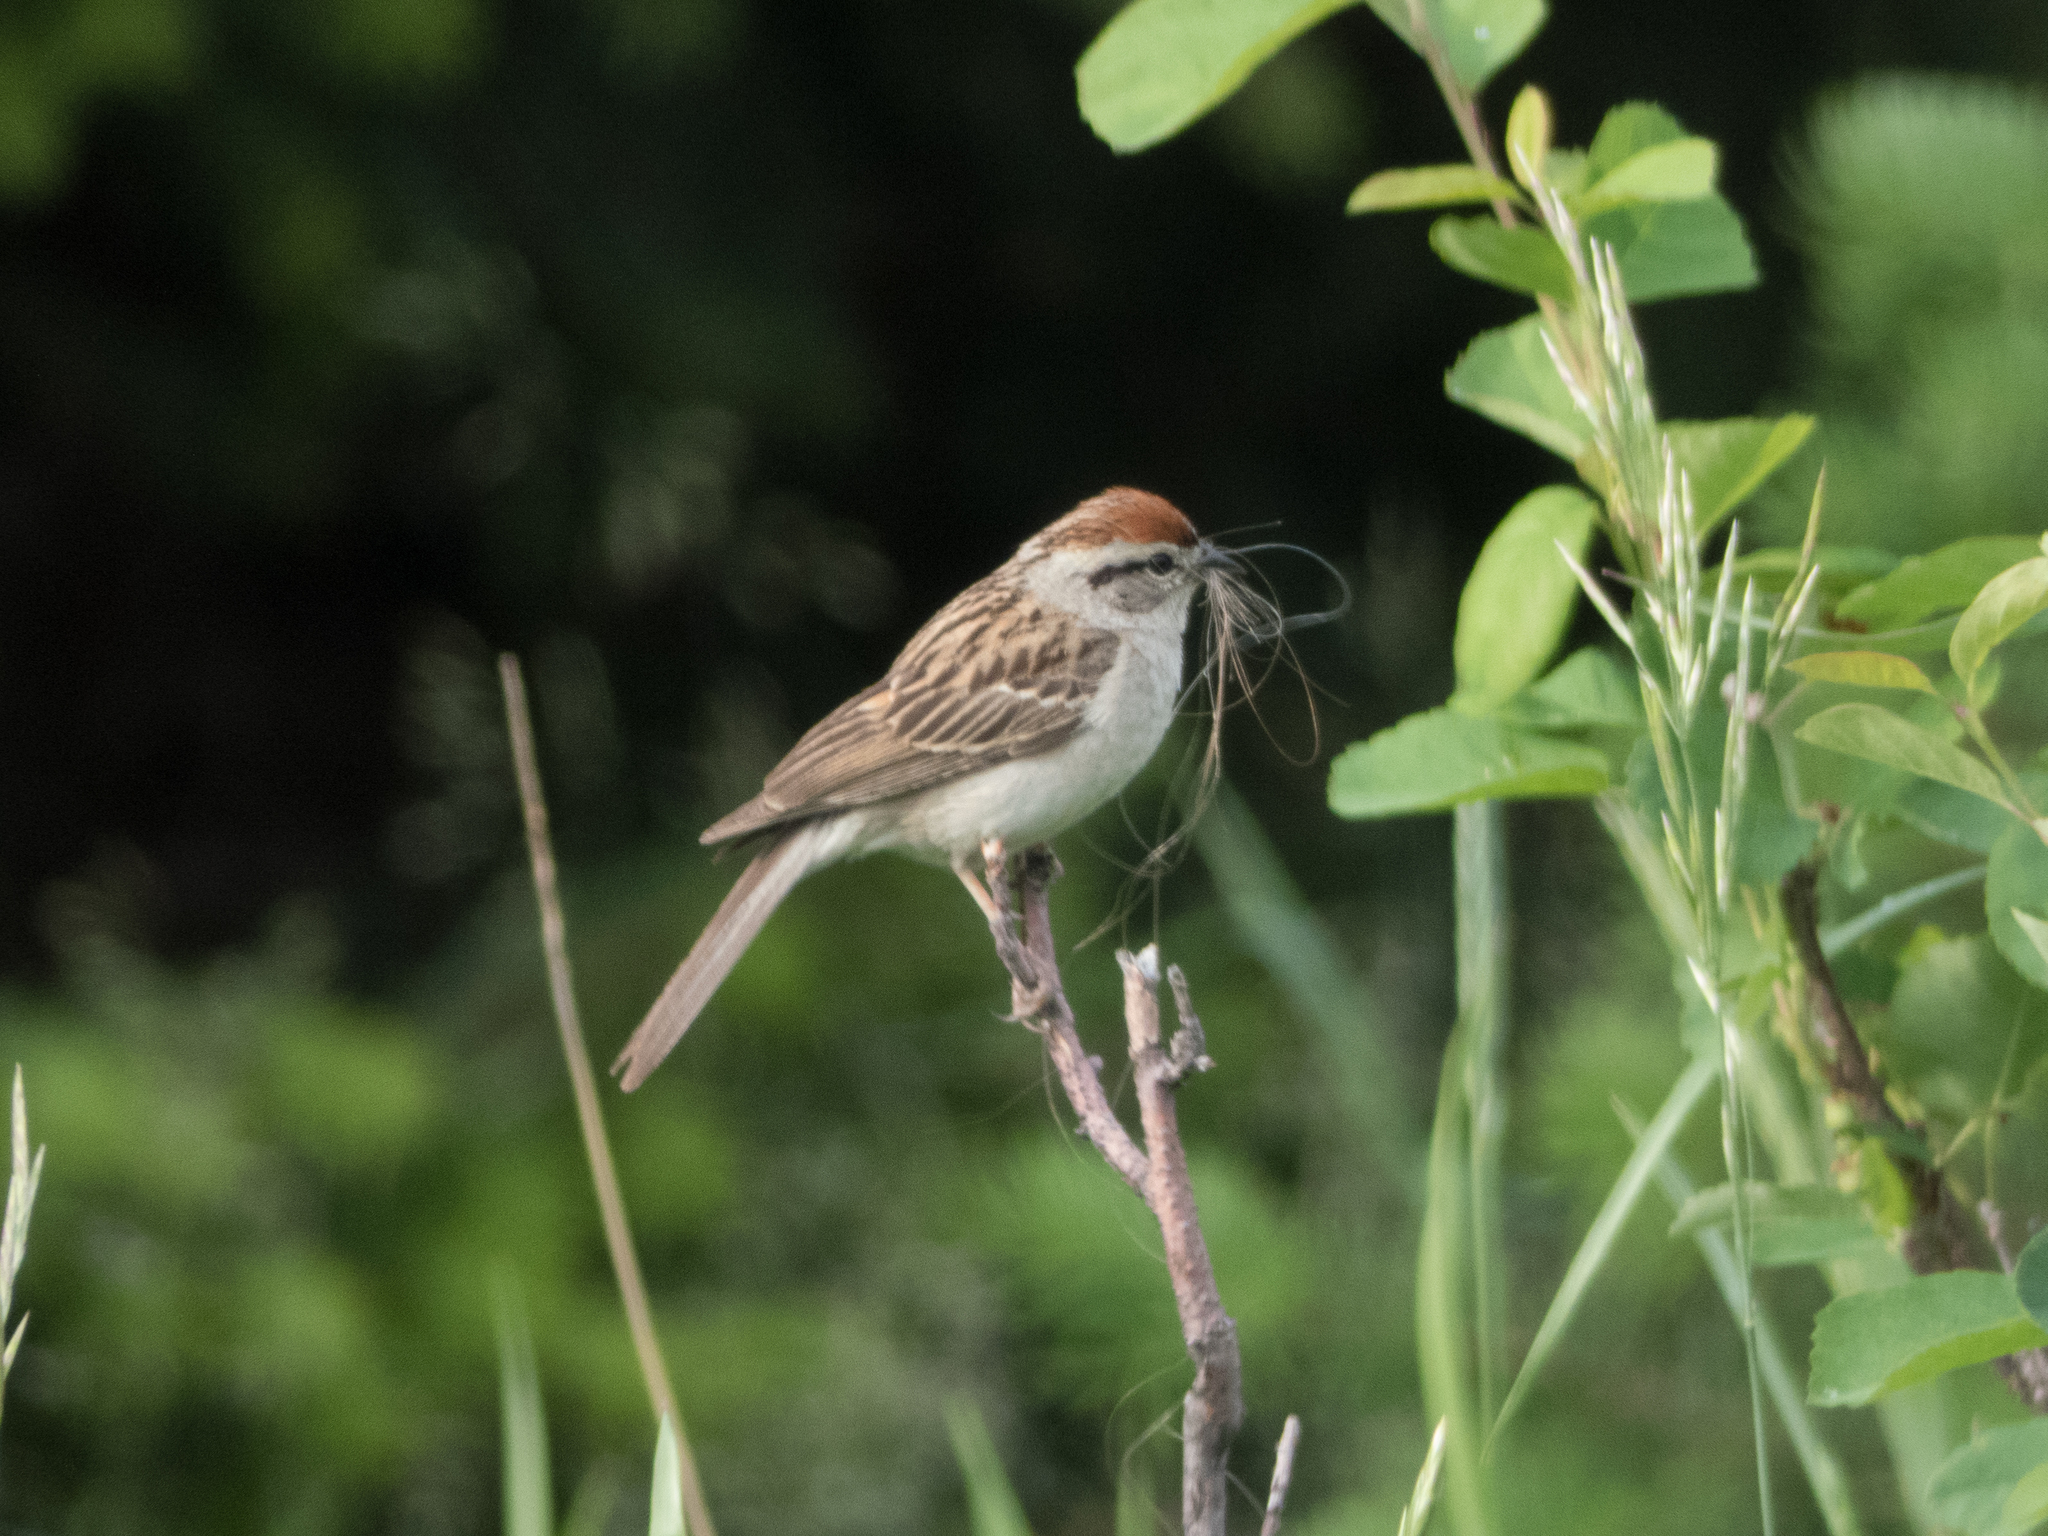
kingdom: Animalia
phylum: Chordata
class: Aves
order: Passeriformes
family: Passerellidae
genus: Spizella
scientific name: Spizella passerina
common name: Chipping sparrow
